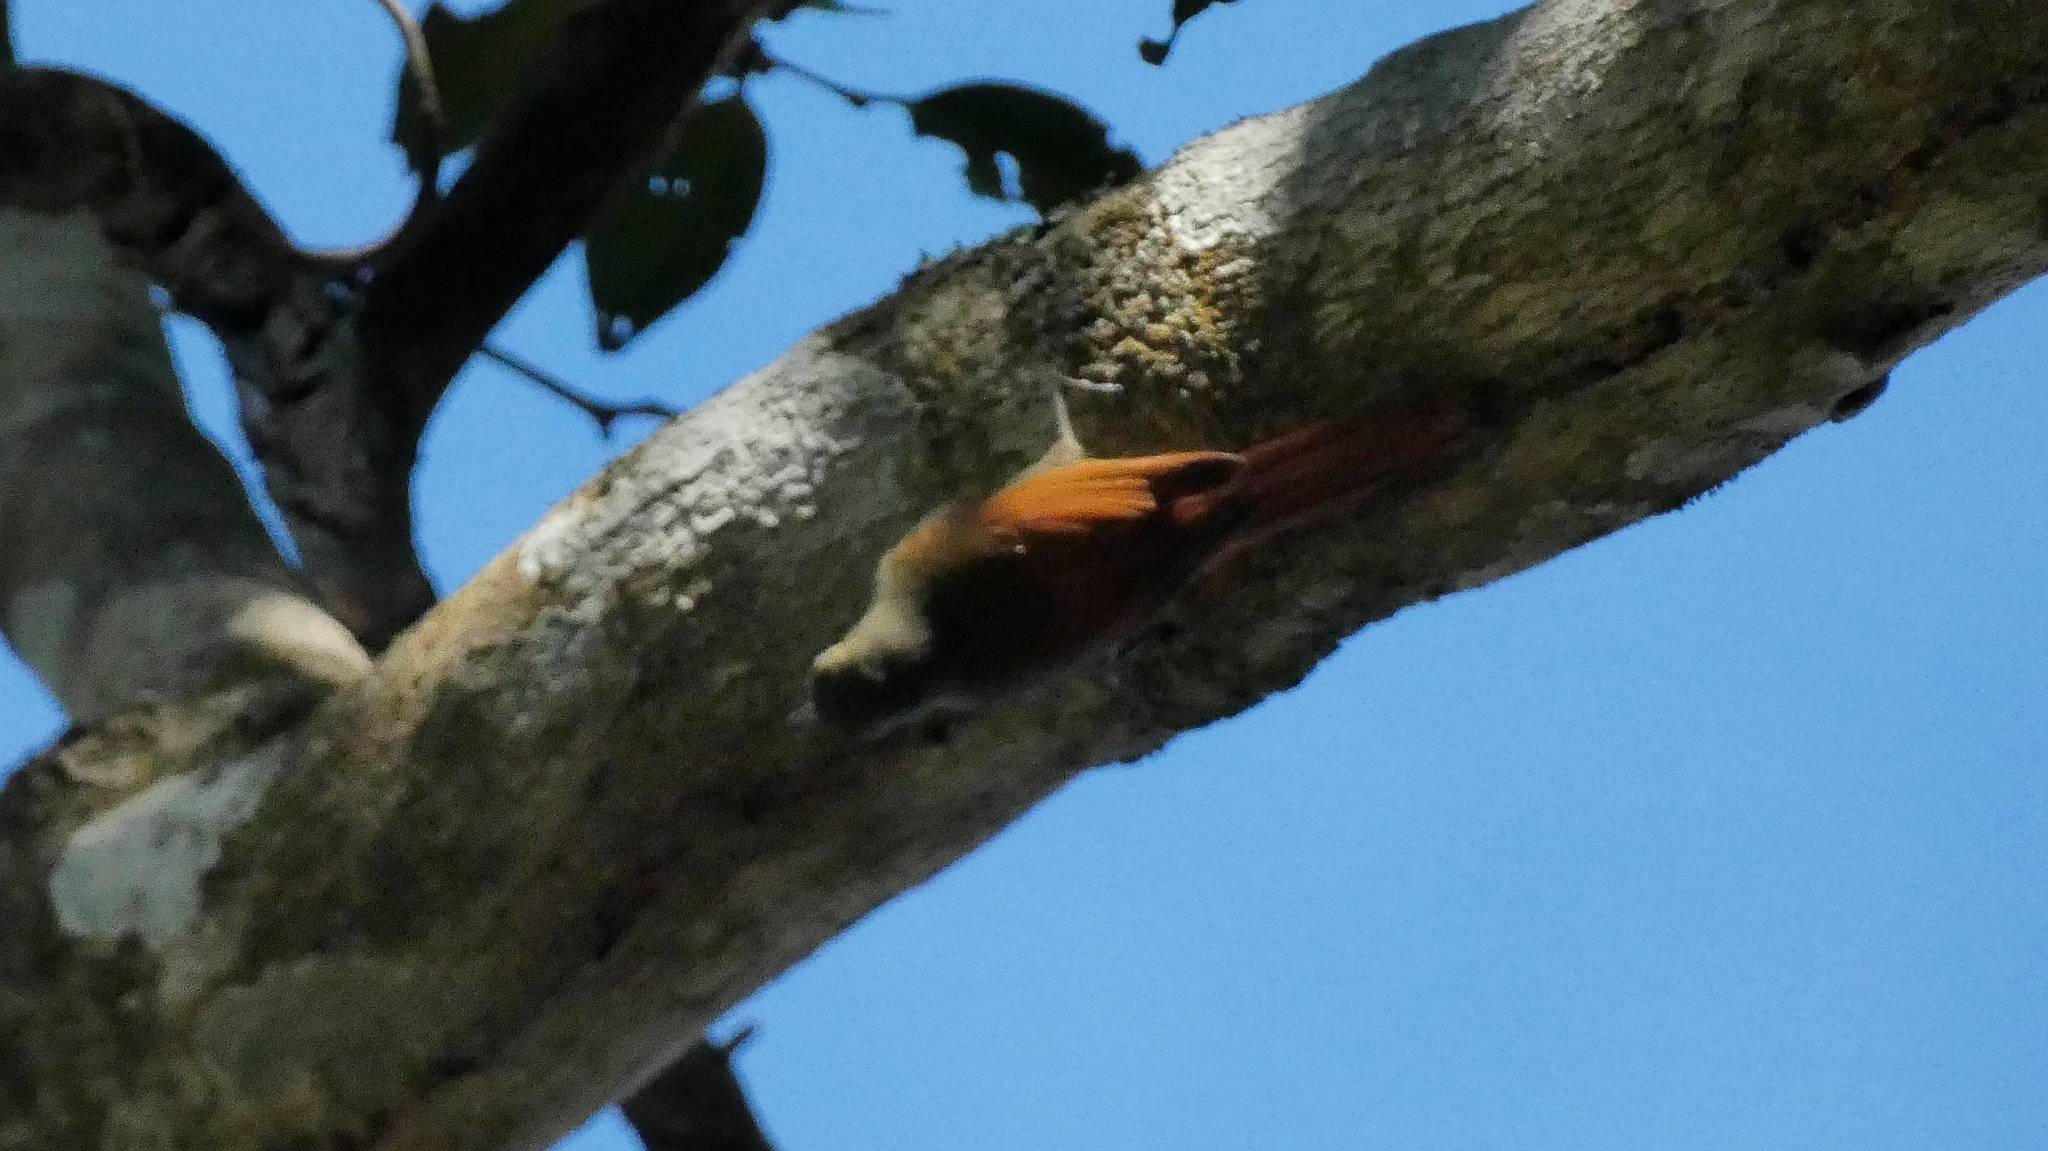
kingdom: Animalia
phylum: Chordata
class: Aves
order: Passeriformes
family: Furnariidae
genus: Sittasomus
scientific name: Sittasomus griseicapillus
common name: Olivaceous woodcreeper
